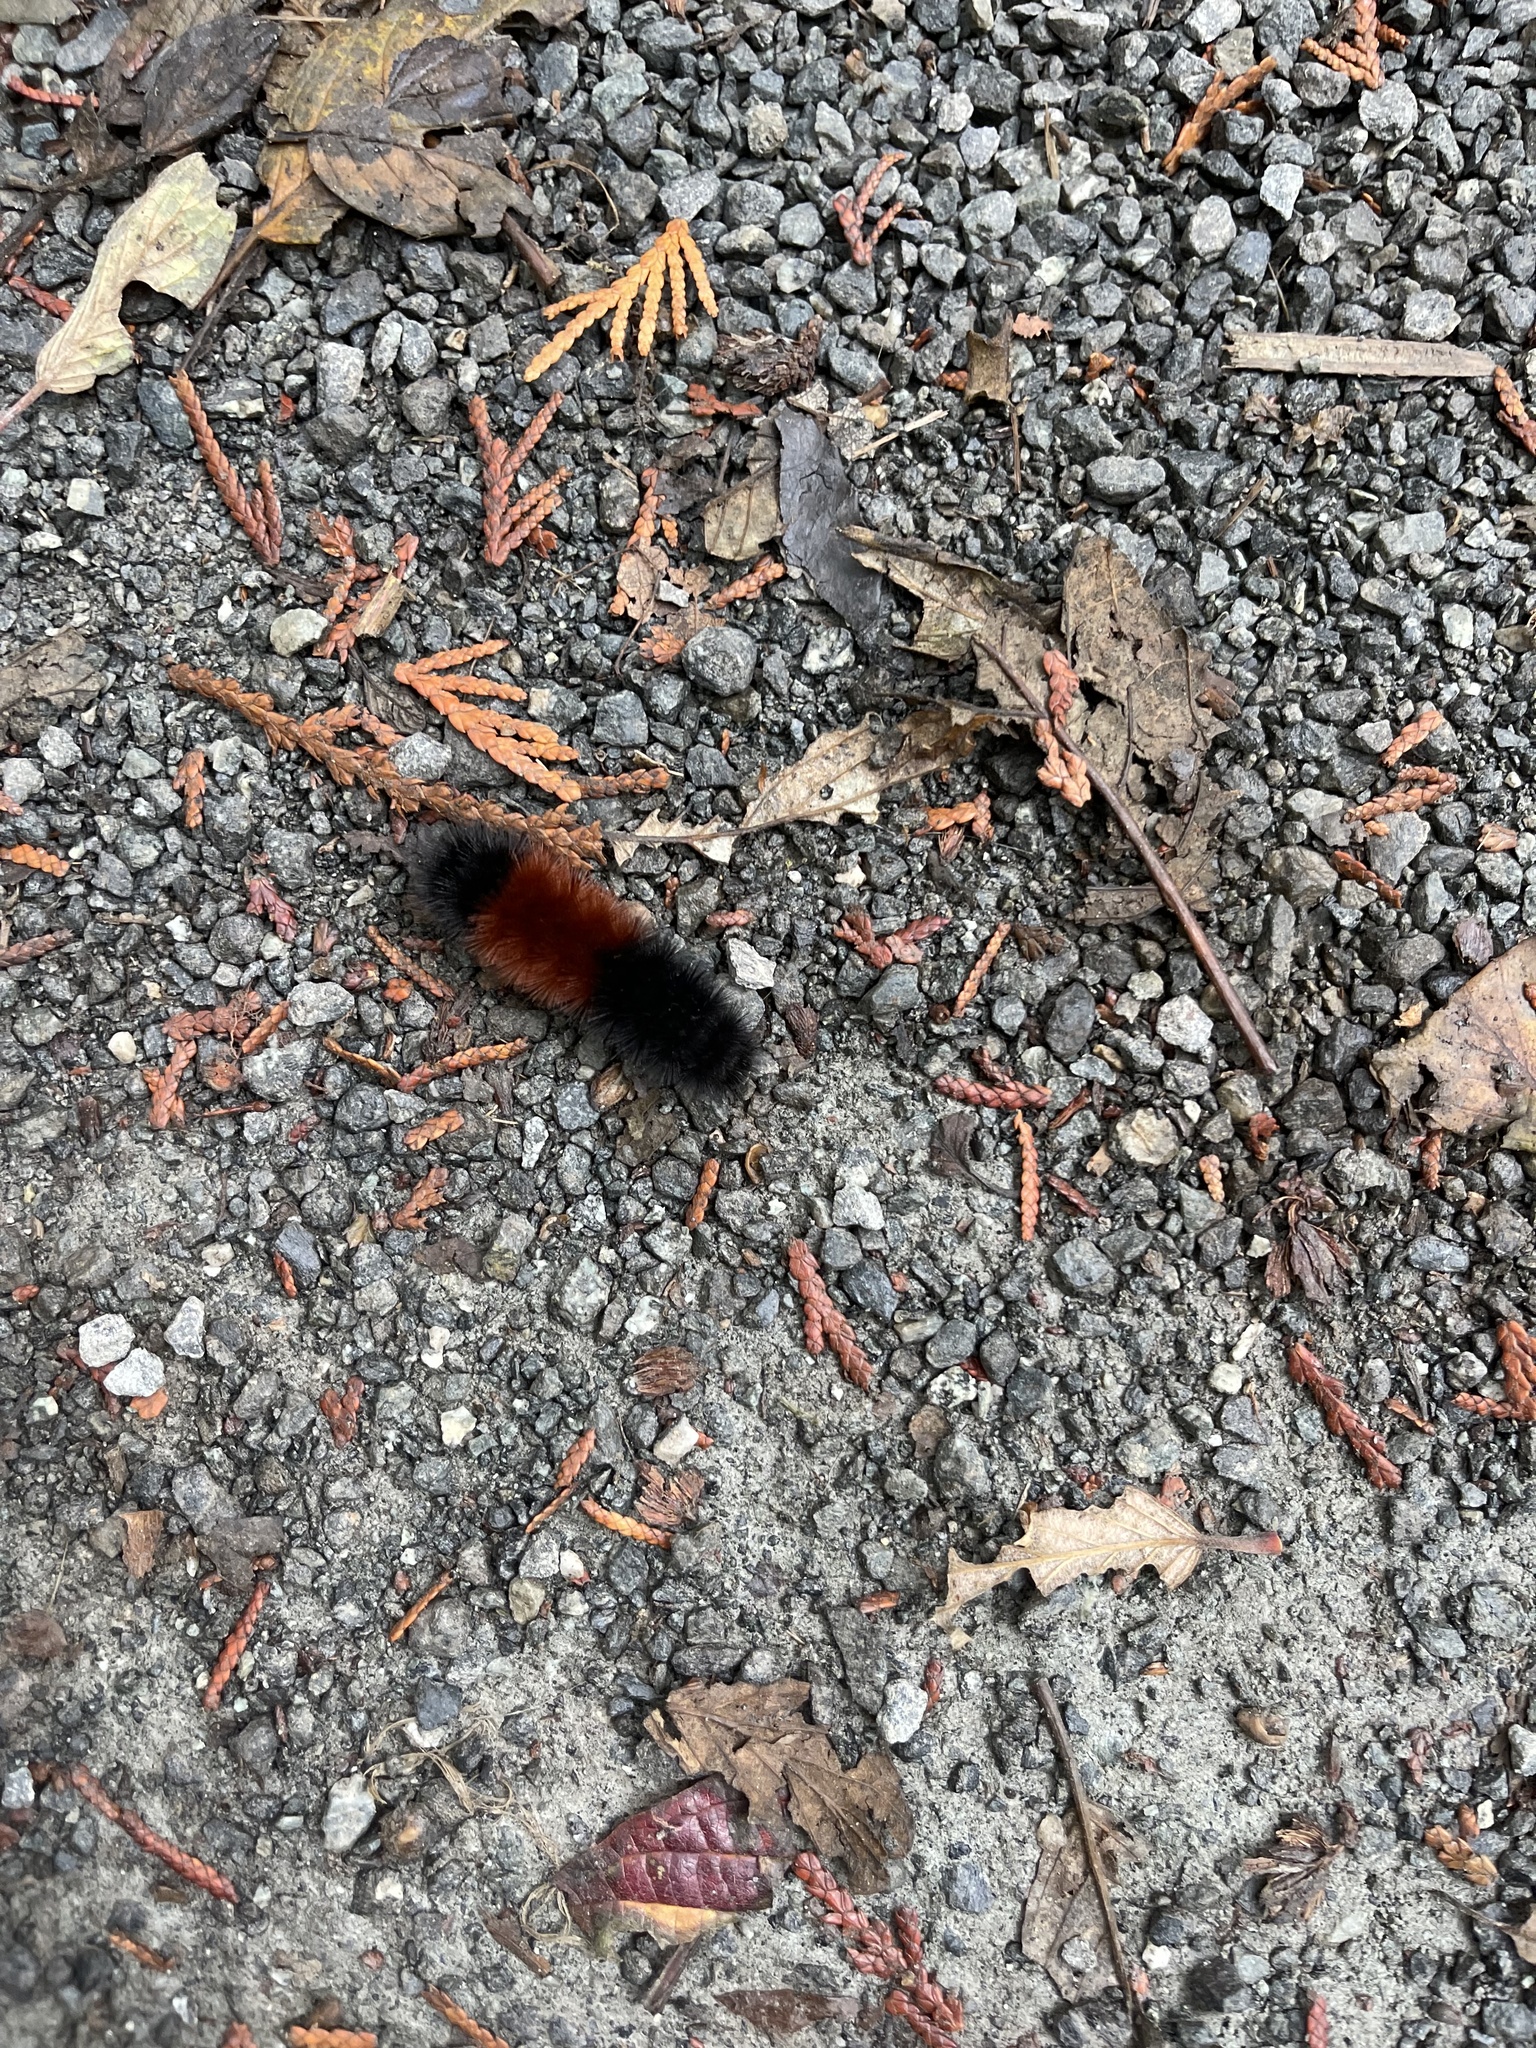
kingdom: Animalia
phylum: Arthropoda
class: Insecta
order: Lepidoptera
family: Erebidae
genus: Pyrrharctia
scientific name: Pyrrharctia isabella
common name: Isabella tiger moth
